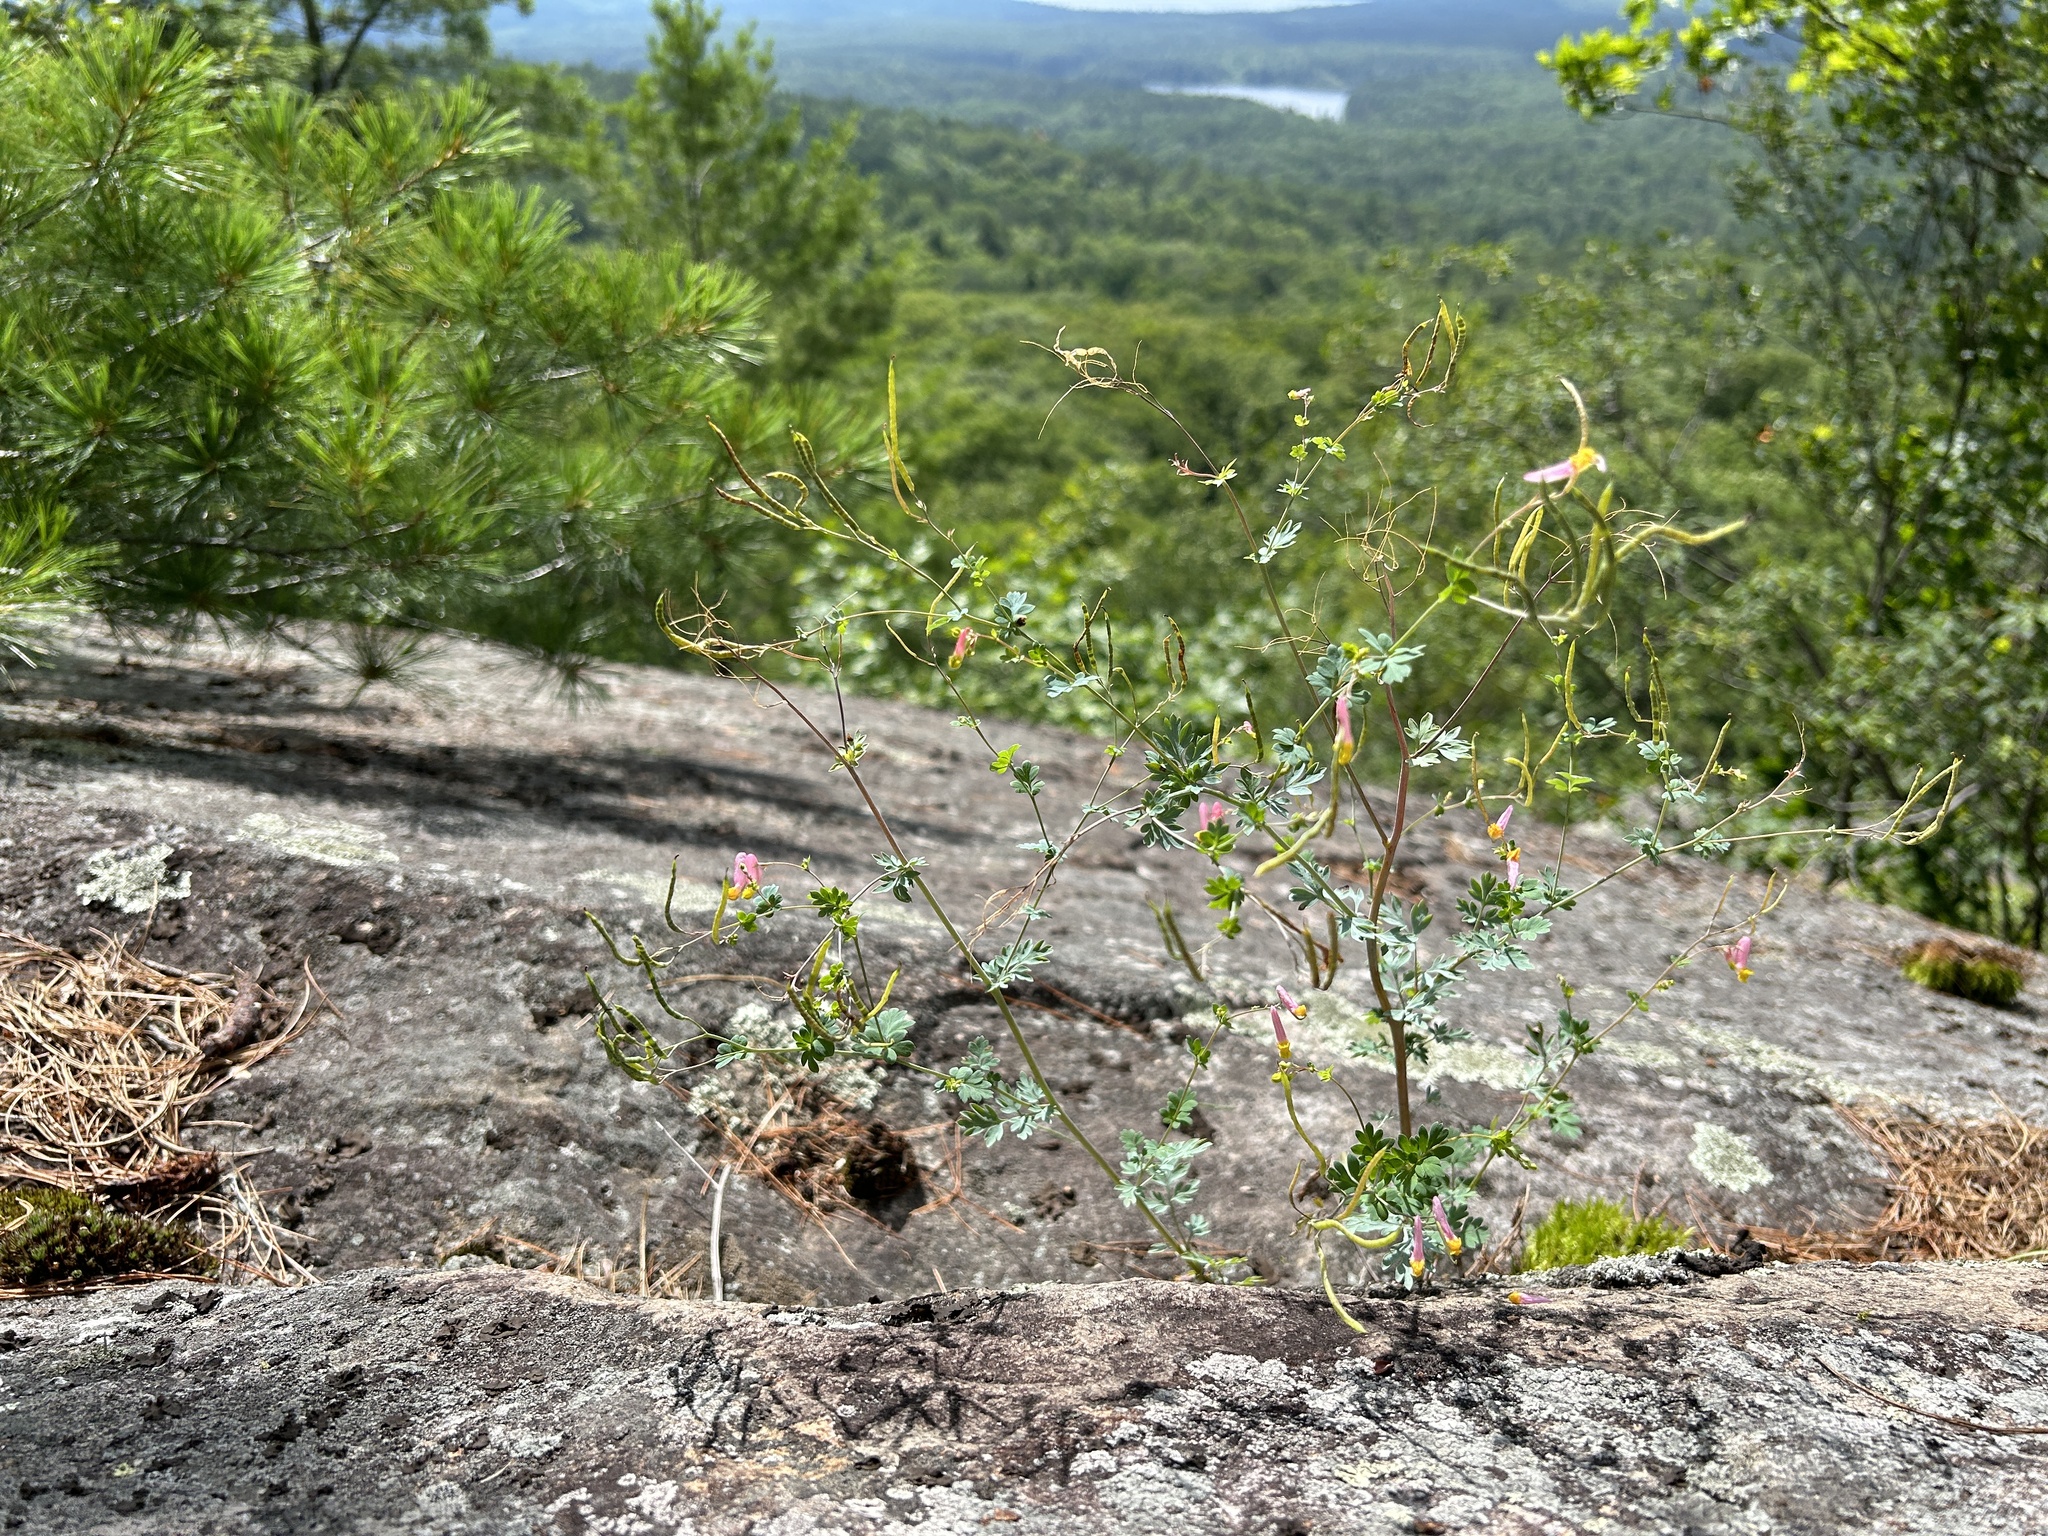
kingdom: Plantae
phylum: Tracheophyta
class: Magnoliopsida
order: Ranunculales
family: Papaveraceae
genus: Capnoides
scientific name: Capnoides sempervirens
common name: Rock harlequin
